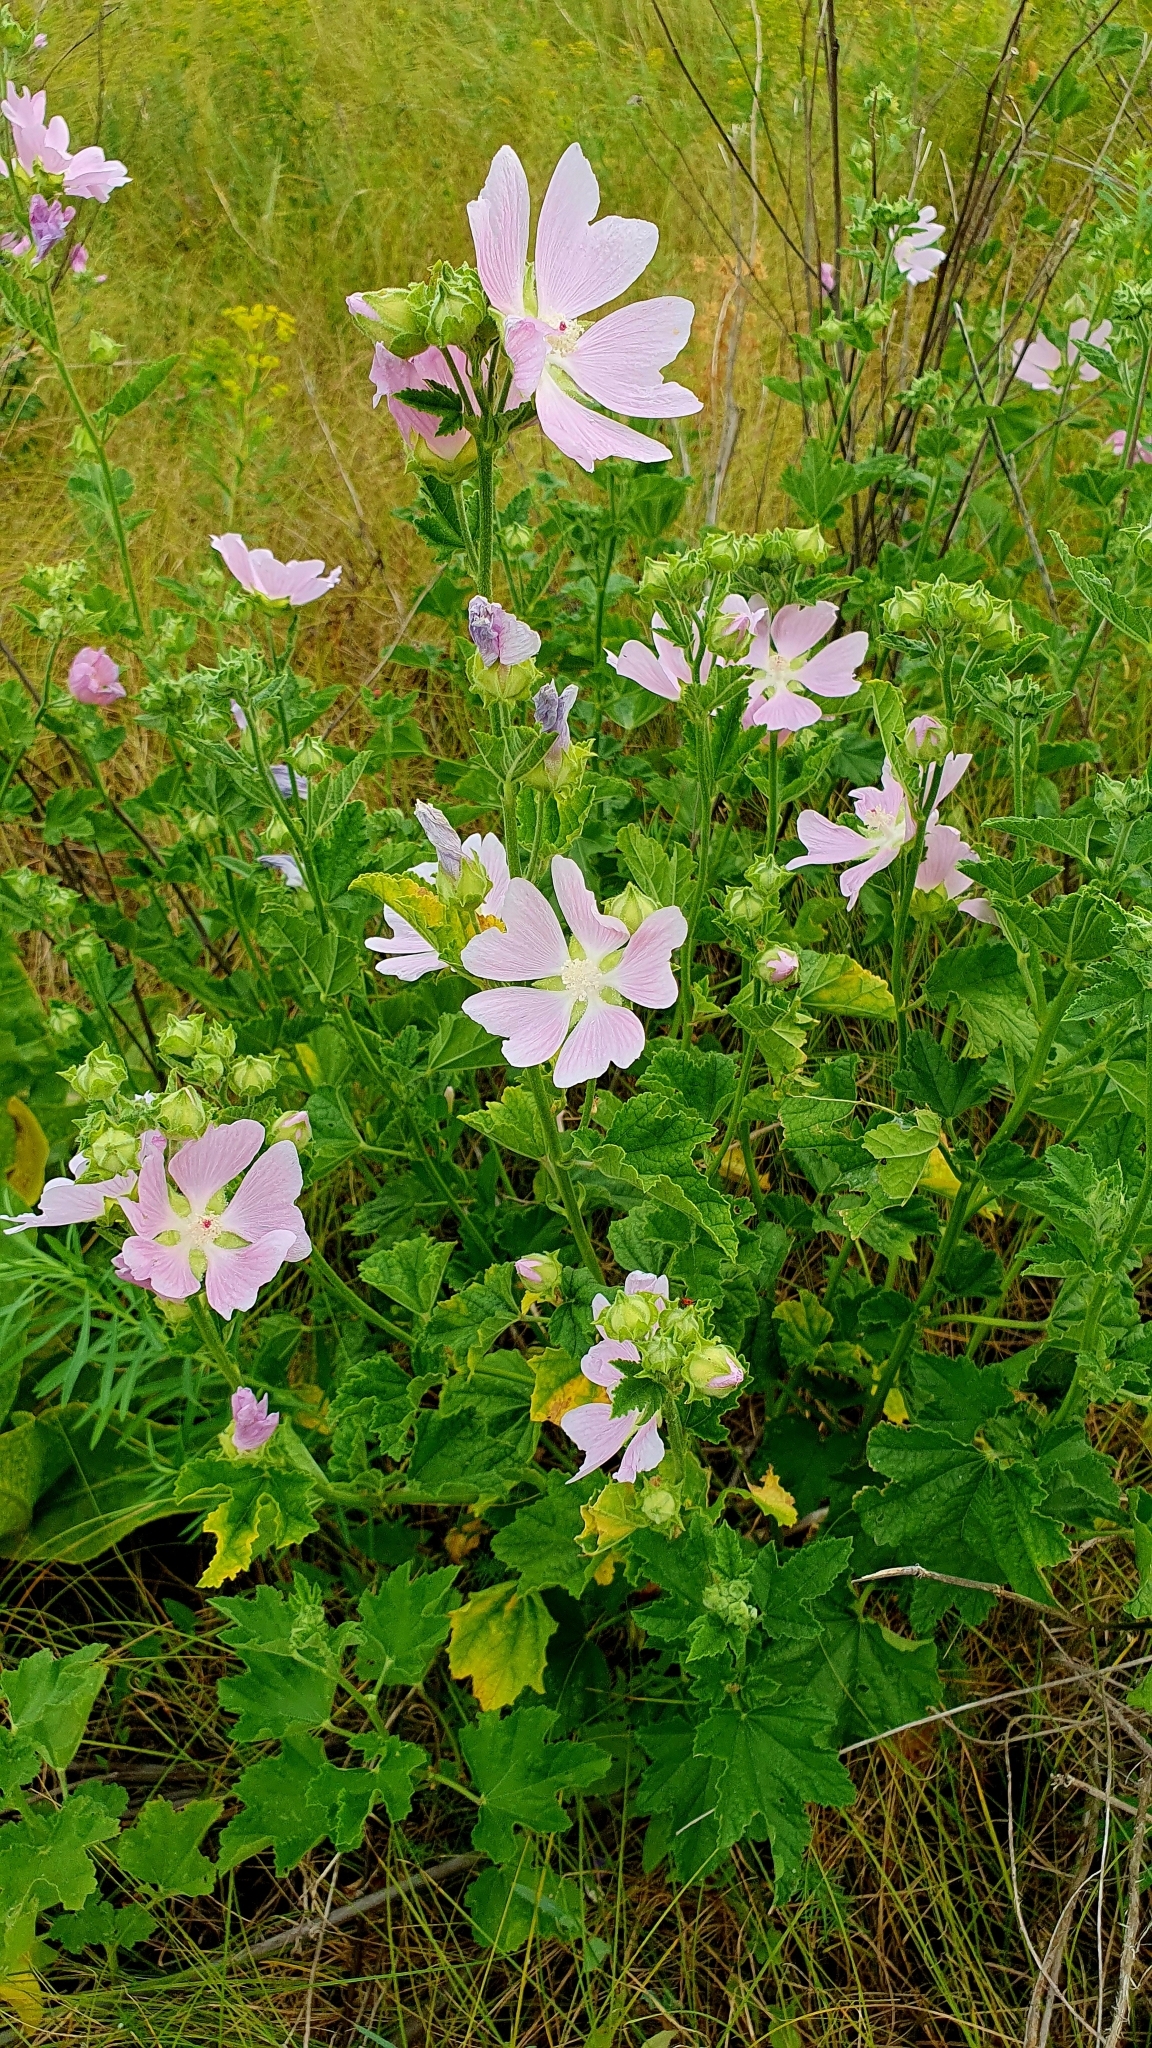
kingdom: Plantae
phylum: Tracheophyta
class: Magnoliopsida
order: Malvales
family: Malvaceae
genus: Malva
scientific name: Malva thuringiaca
